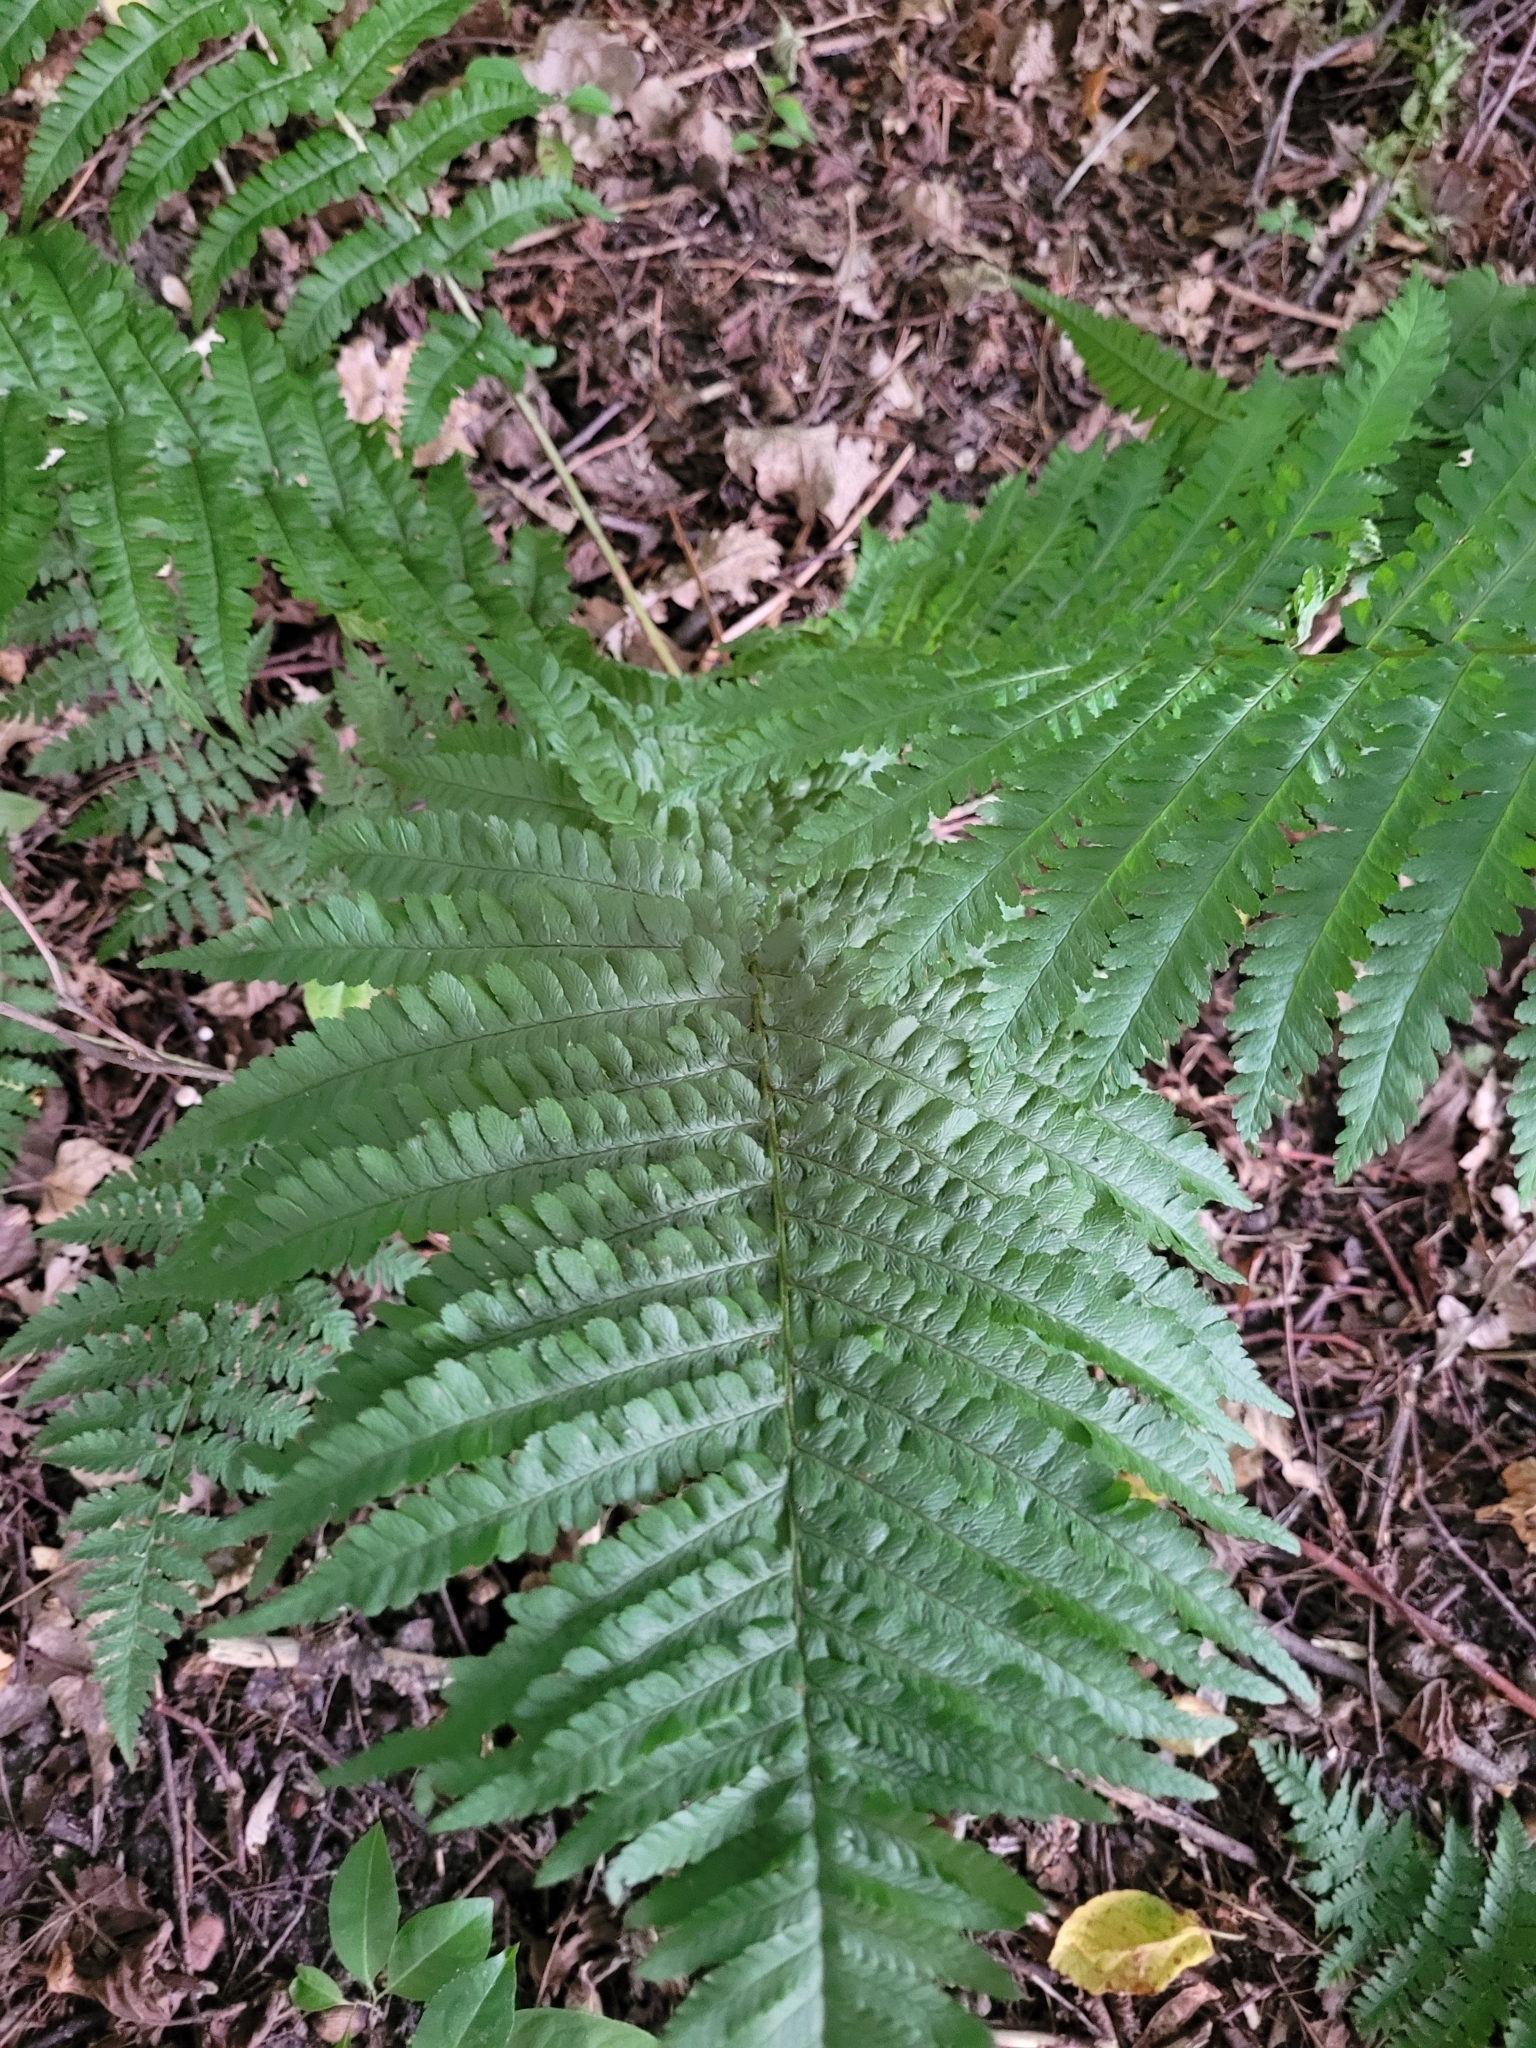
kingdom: Plantae
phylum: Tracheophyta
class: Polypodiopsida
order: Polypodiales
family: Dryopteridaceae
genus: Dryopteris
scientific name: Dryopteris filix-mas
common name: Male fern
